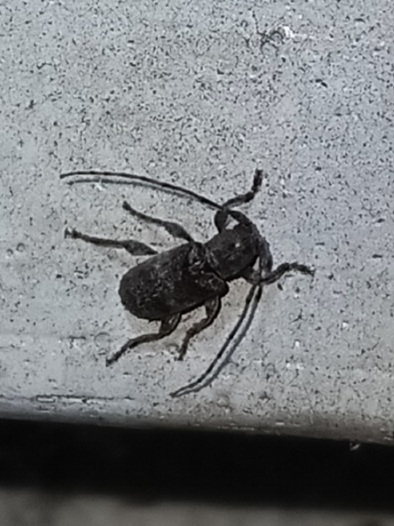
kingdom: Animalia
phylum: Arthropoda
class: Insecta
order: Coleoptera
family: Cerambycidae
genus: Ecyrus
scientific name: Ecyrus dasycerus
